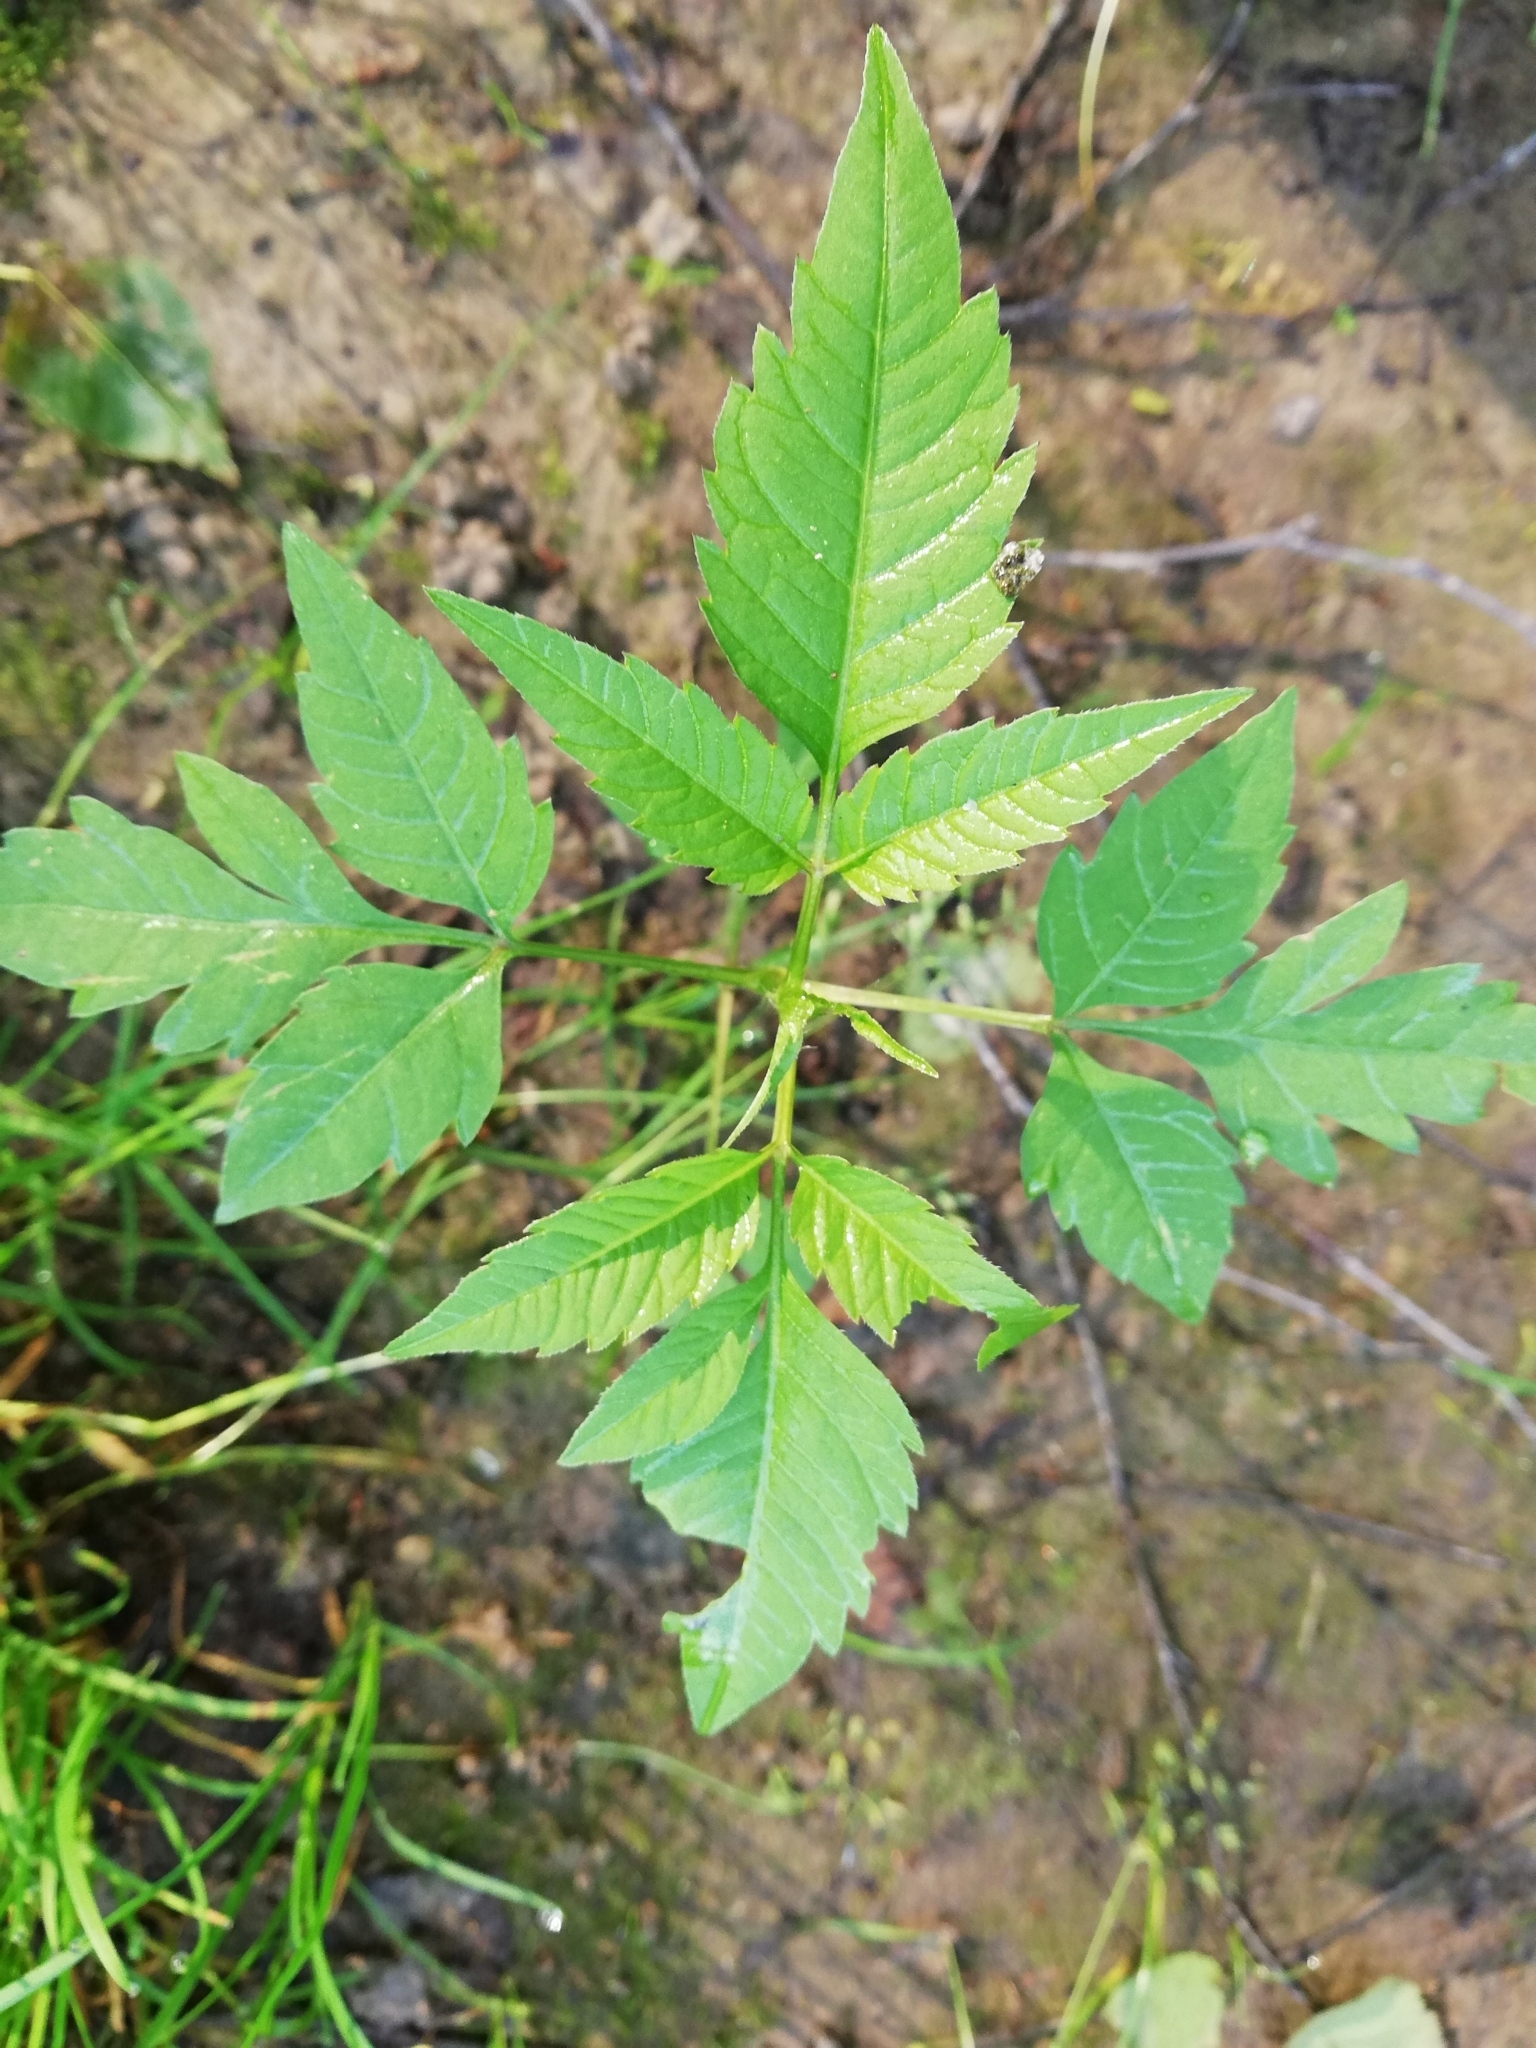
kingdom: Plantae
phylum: Tracheophyta
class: Magnoliopsida
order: Asterales
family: Asteraceae
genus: Bidens
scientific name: Bidens frondosa
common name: Beggarticks
